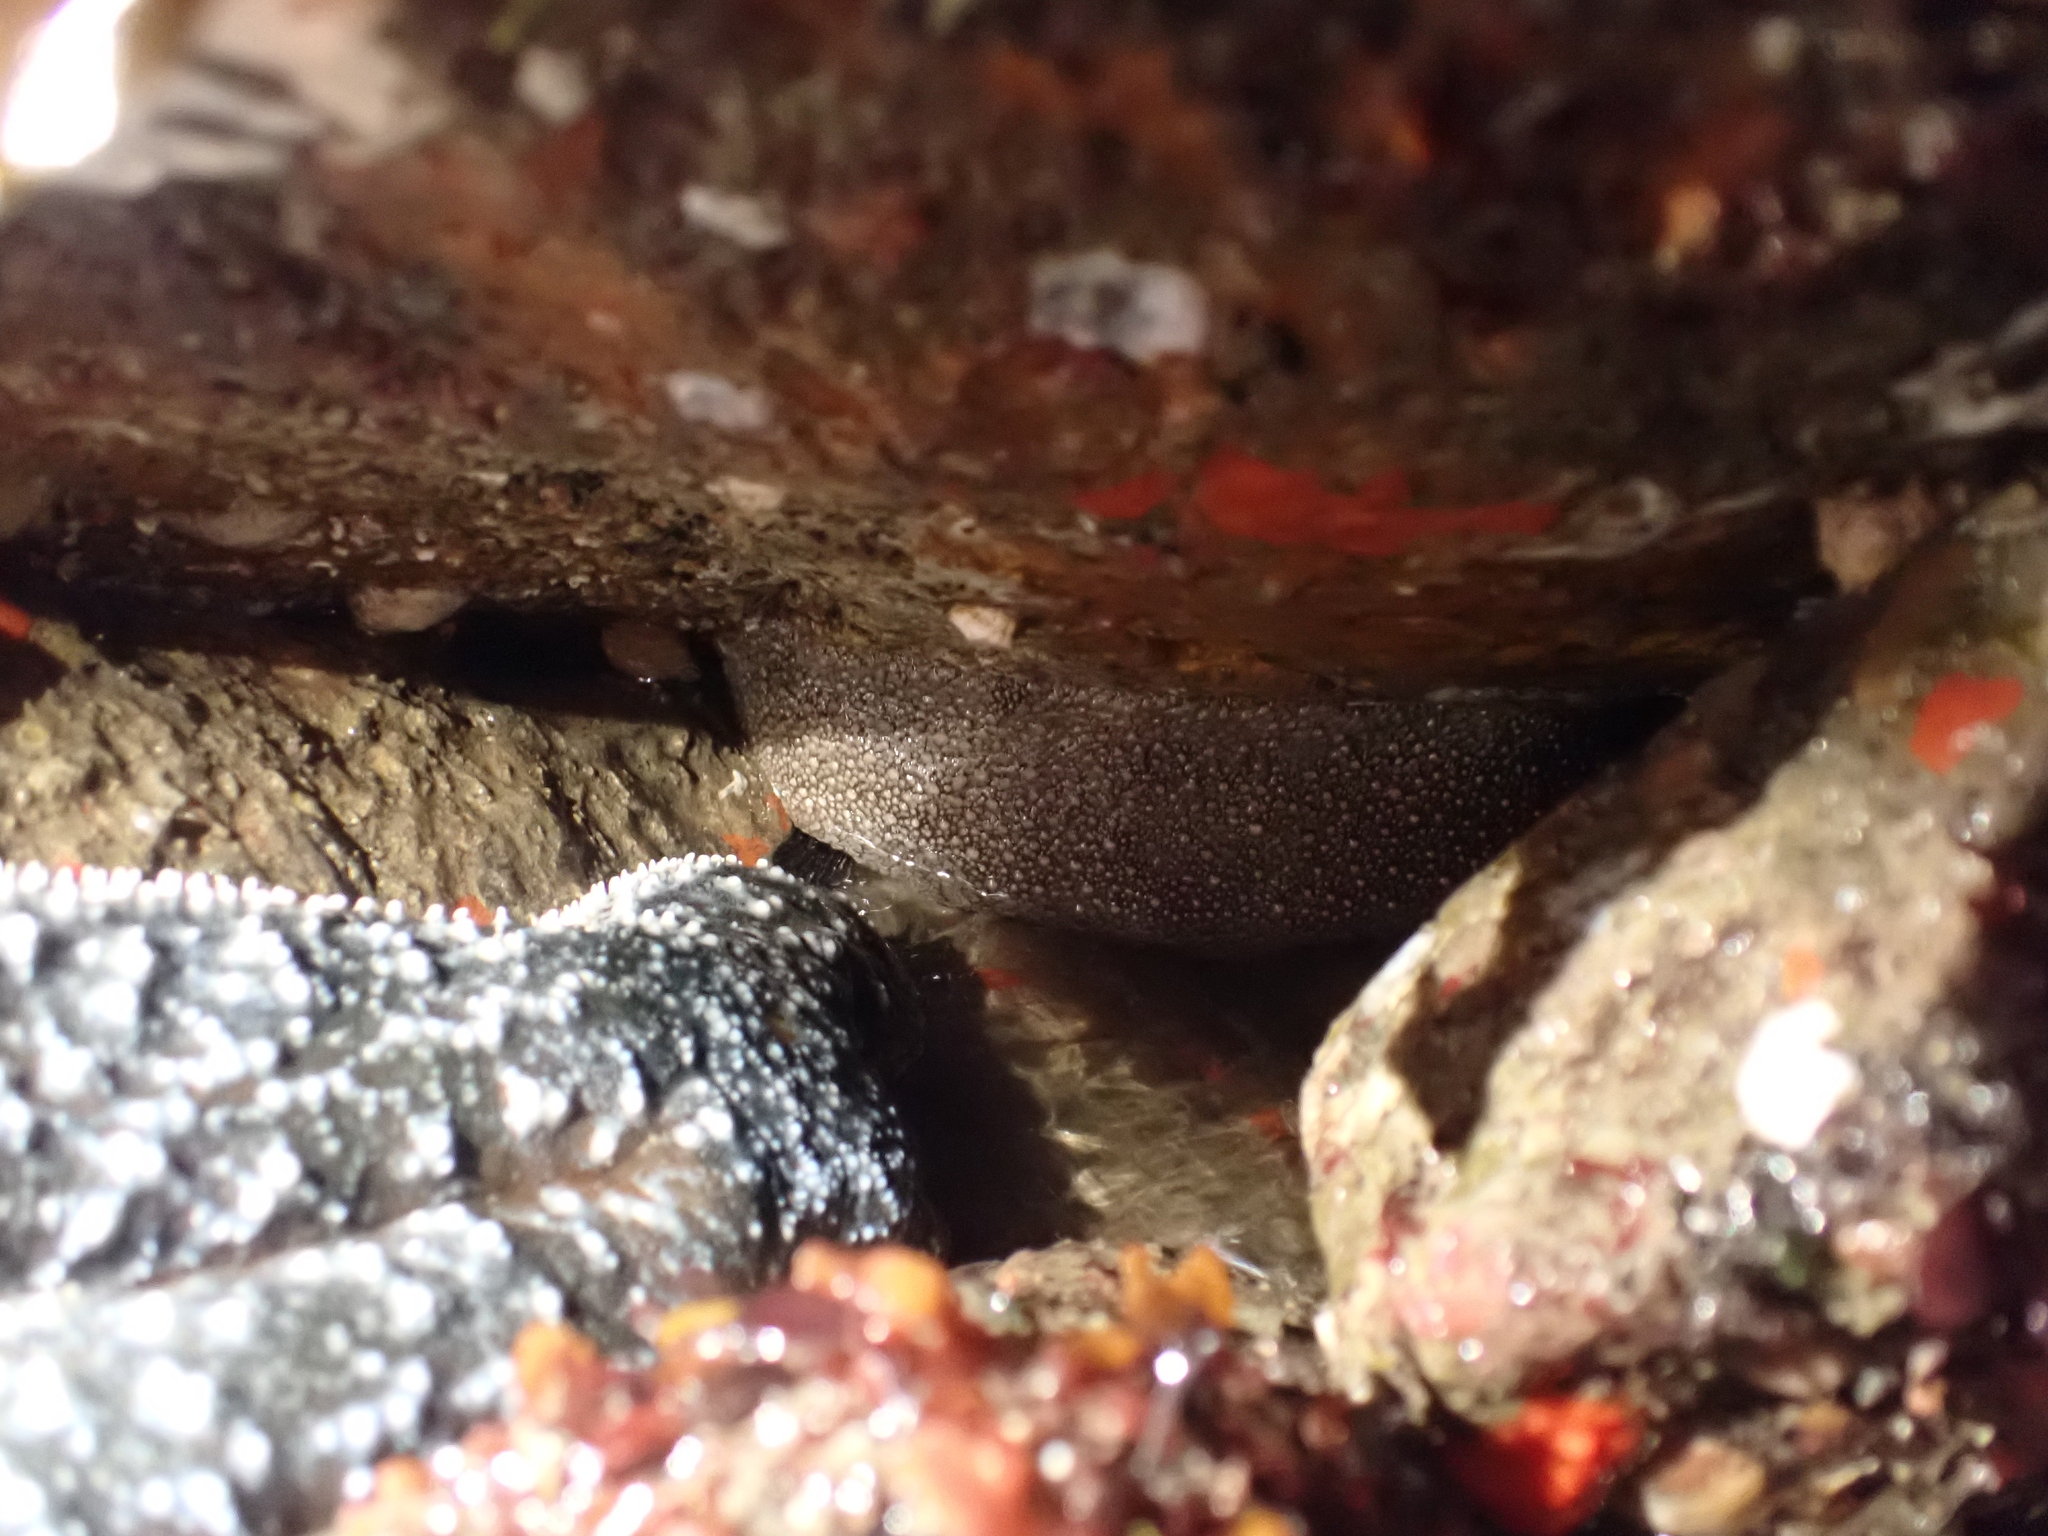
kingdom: Animalia
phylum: Mollusca
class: Polyplacophora
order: Chitonida
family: Acanthochitonidae
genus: Cryptochiton
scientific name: Cryptochiton stelleri
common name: Giant pacific chiton
